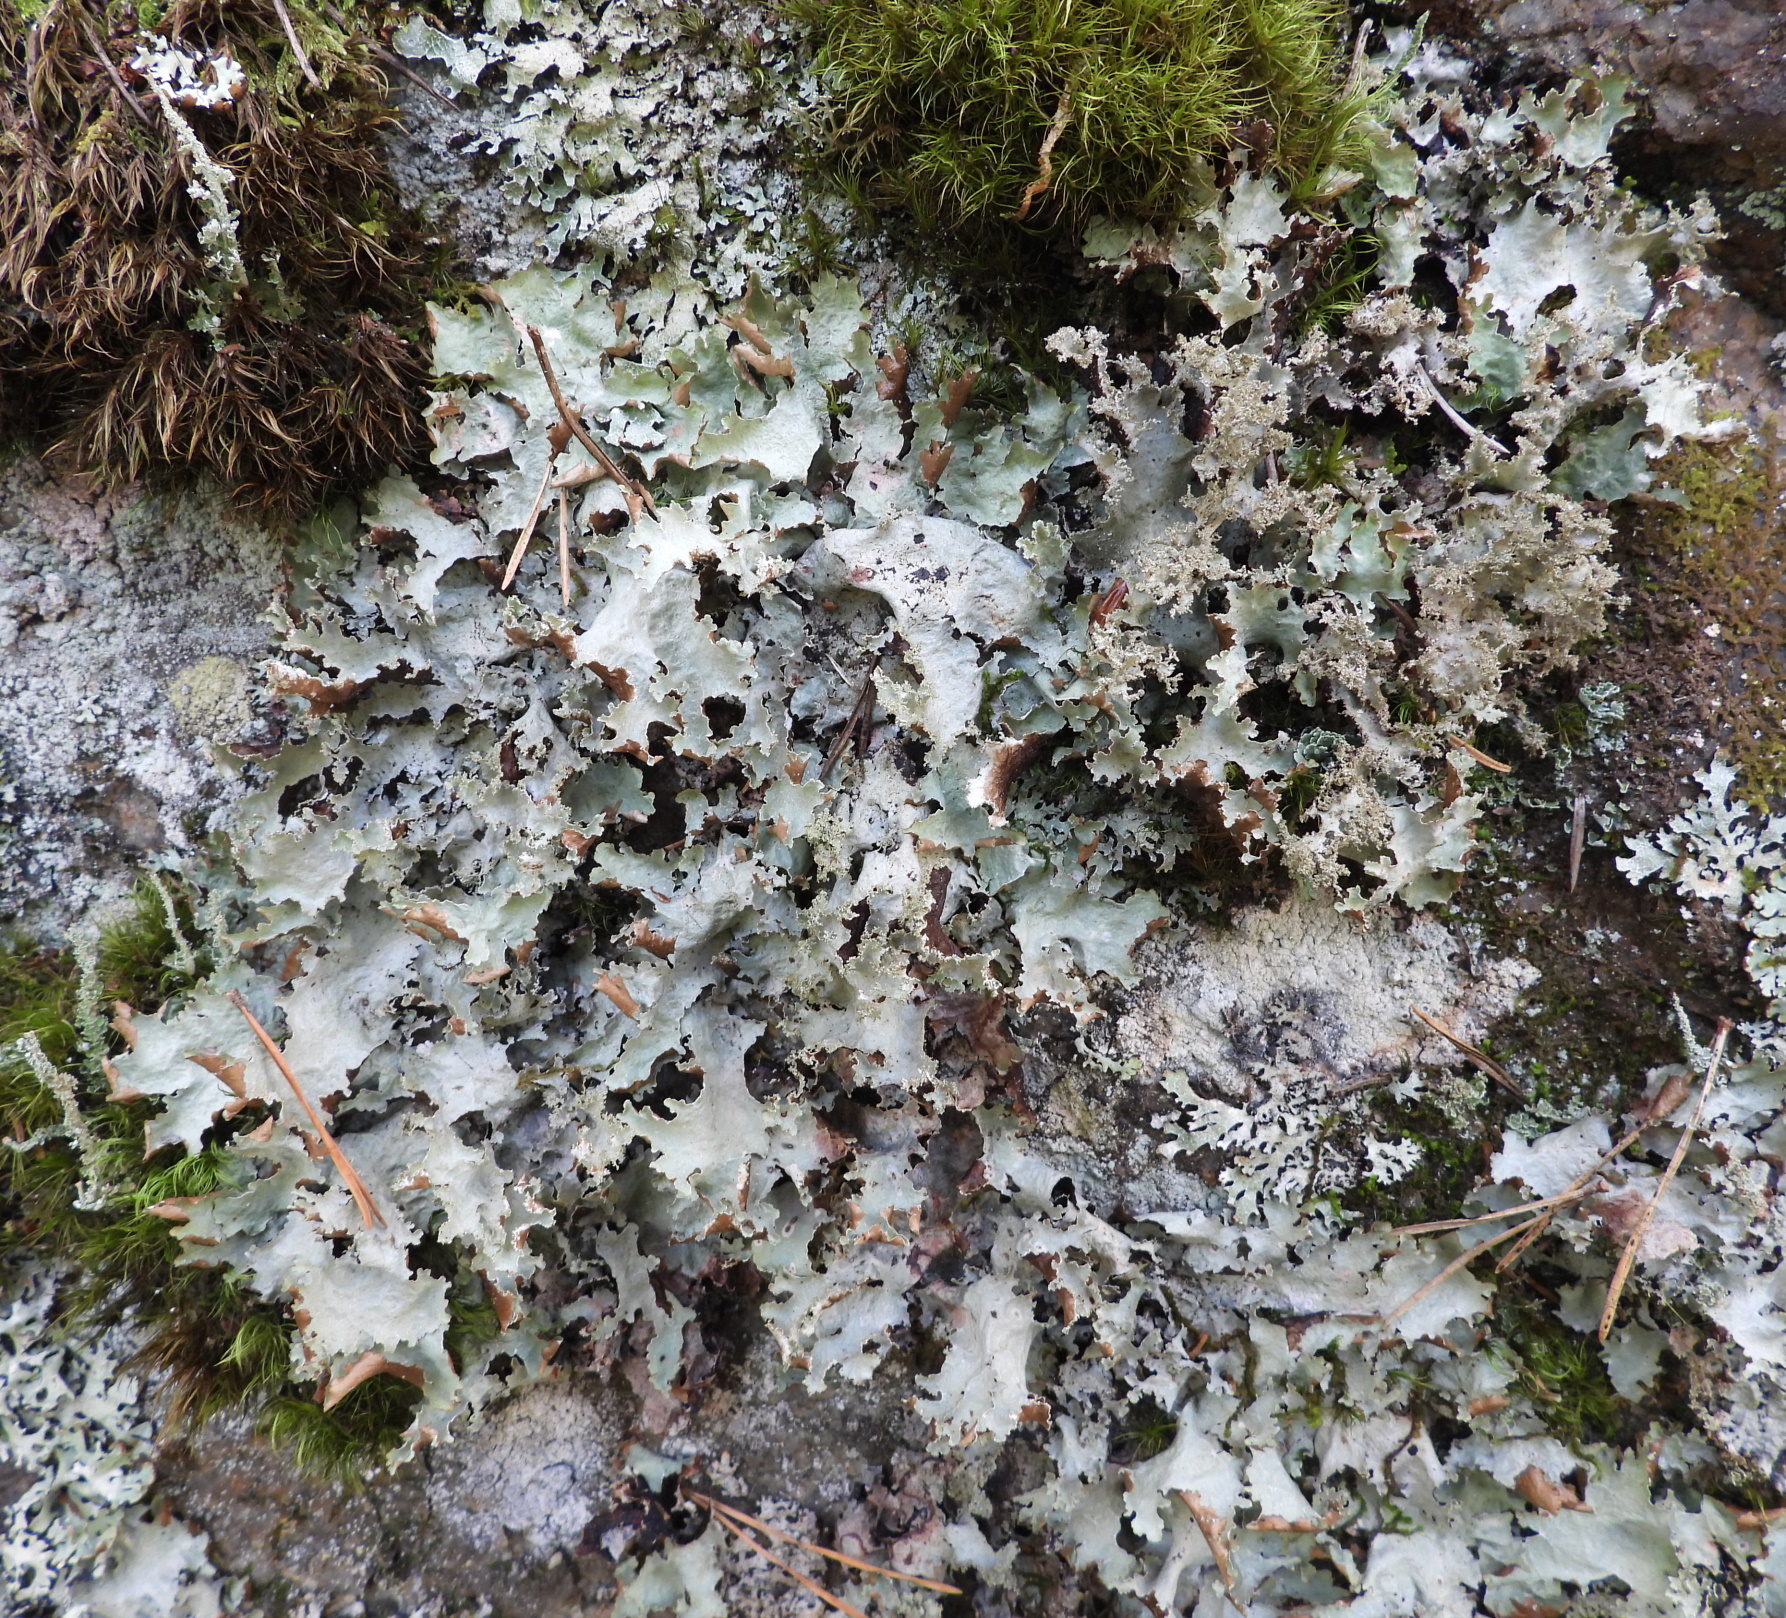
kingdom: Fungi
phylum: Ascomycota
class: Lecanoromycetes
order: Lecanorales
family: Parmeliaceae
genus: Platismatia
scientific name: Platismatia glauca
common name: Varied rag lichen
